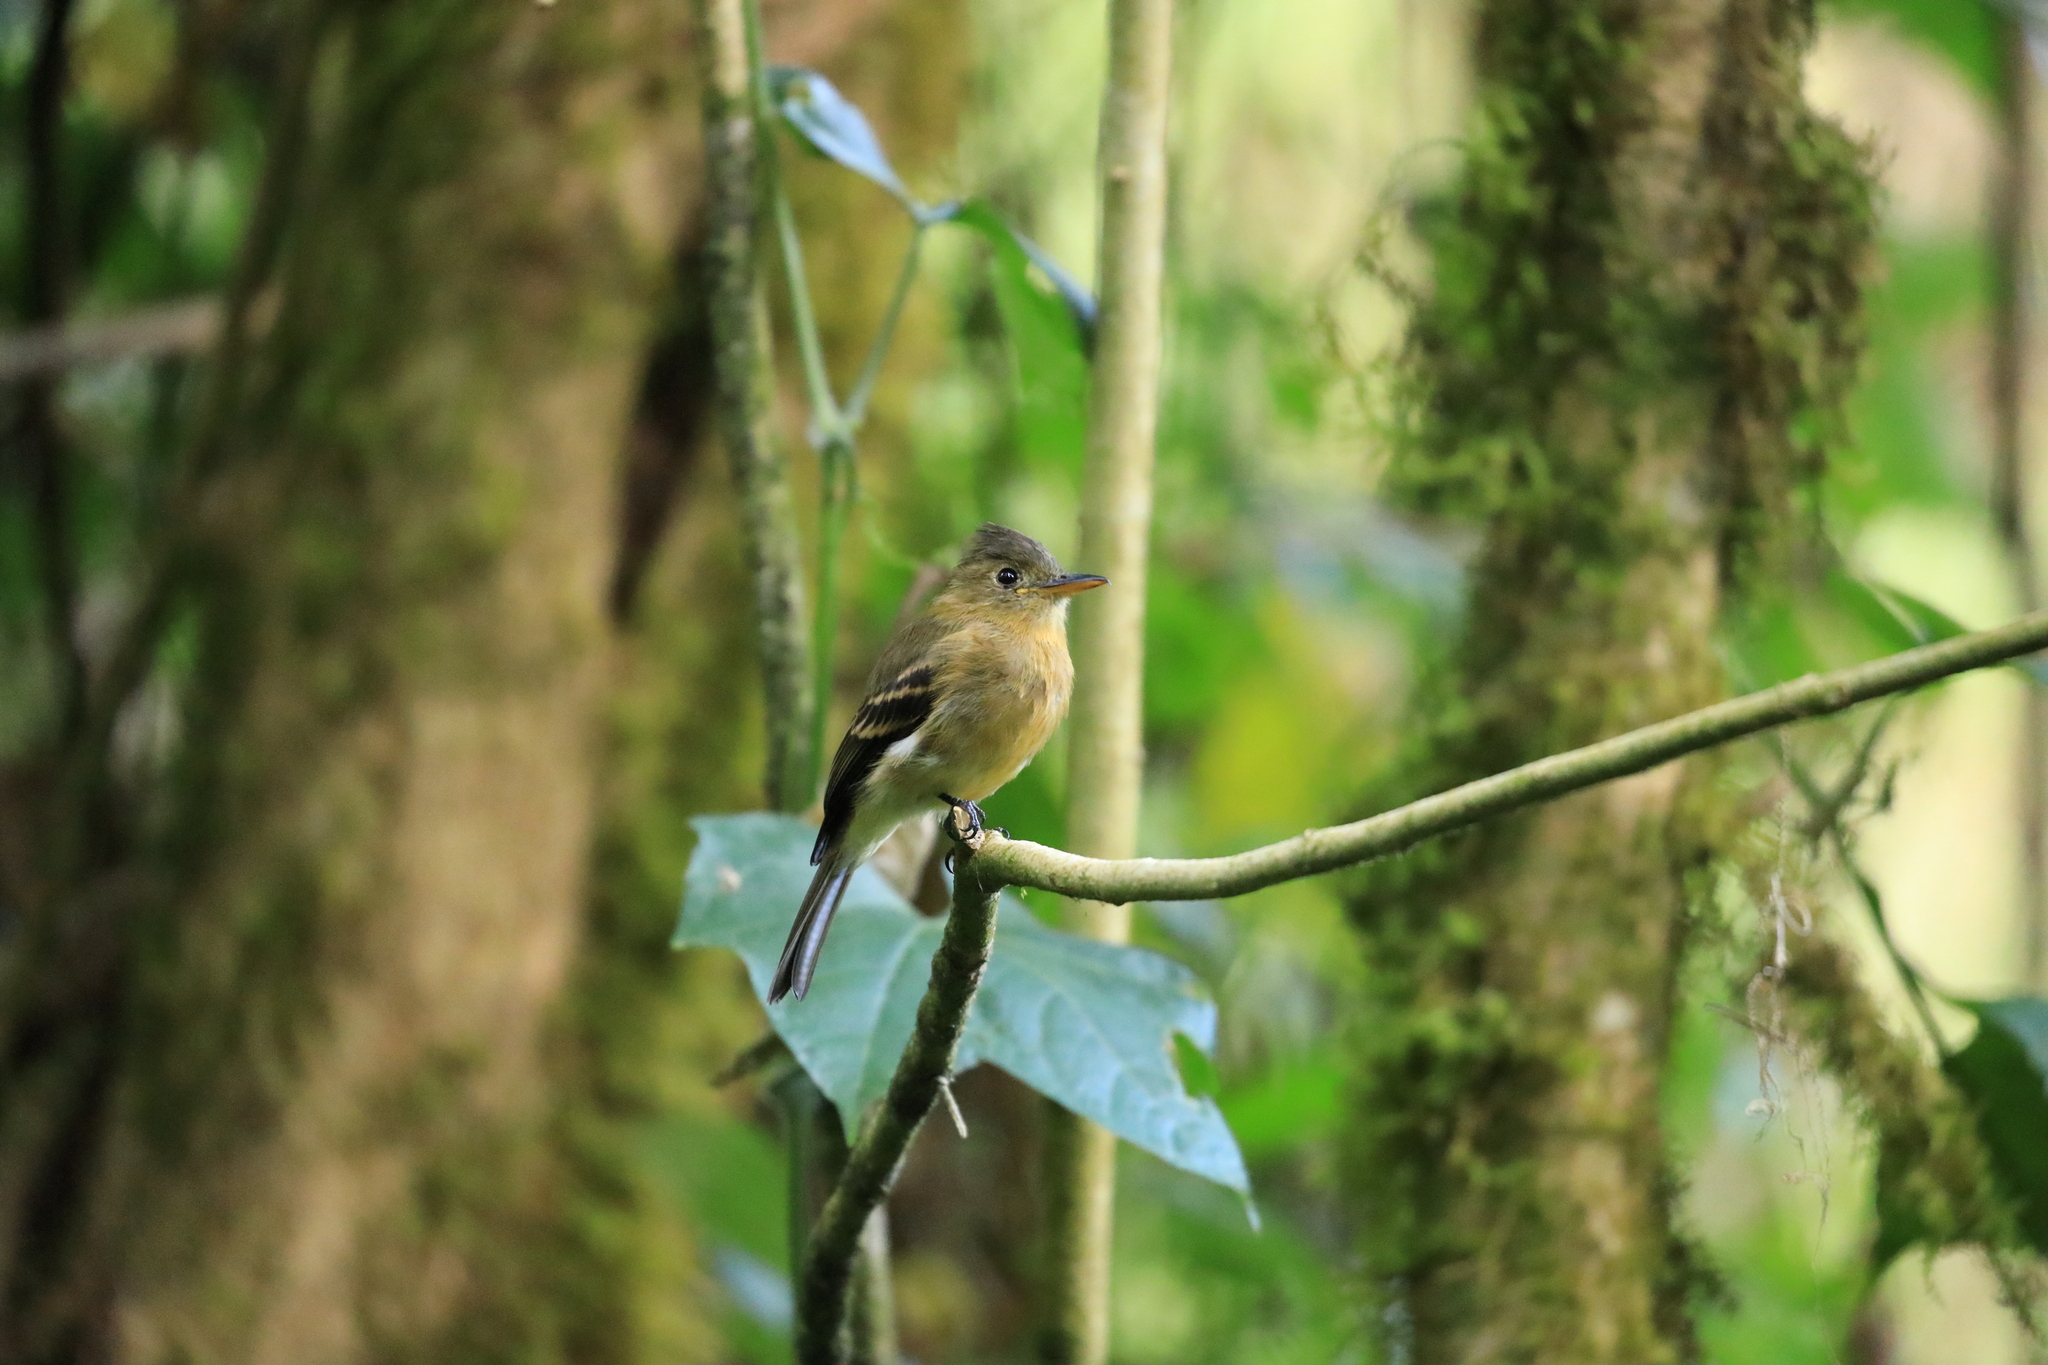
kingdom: Animalia
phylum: Chordata
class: Aves
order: Passeriformes
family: Tyrannidae
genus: Contopus
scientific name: Contopus ochraceus
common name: Ochraceous pewee
